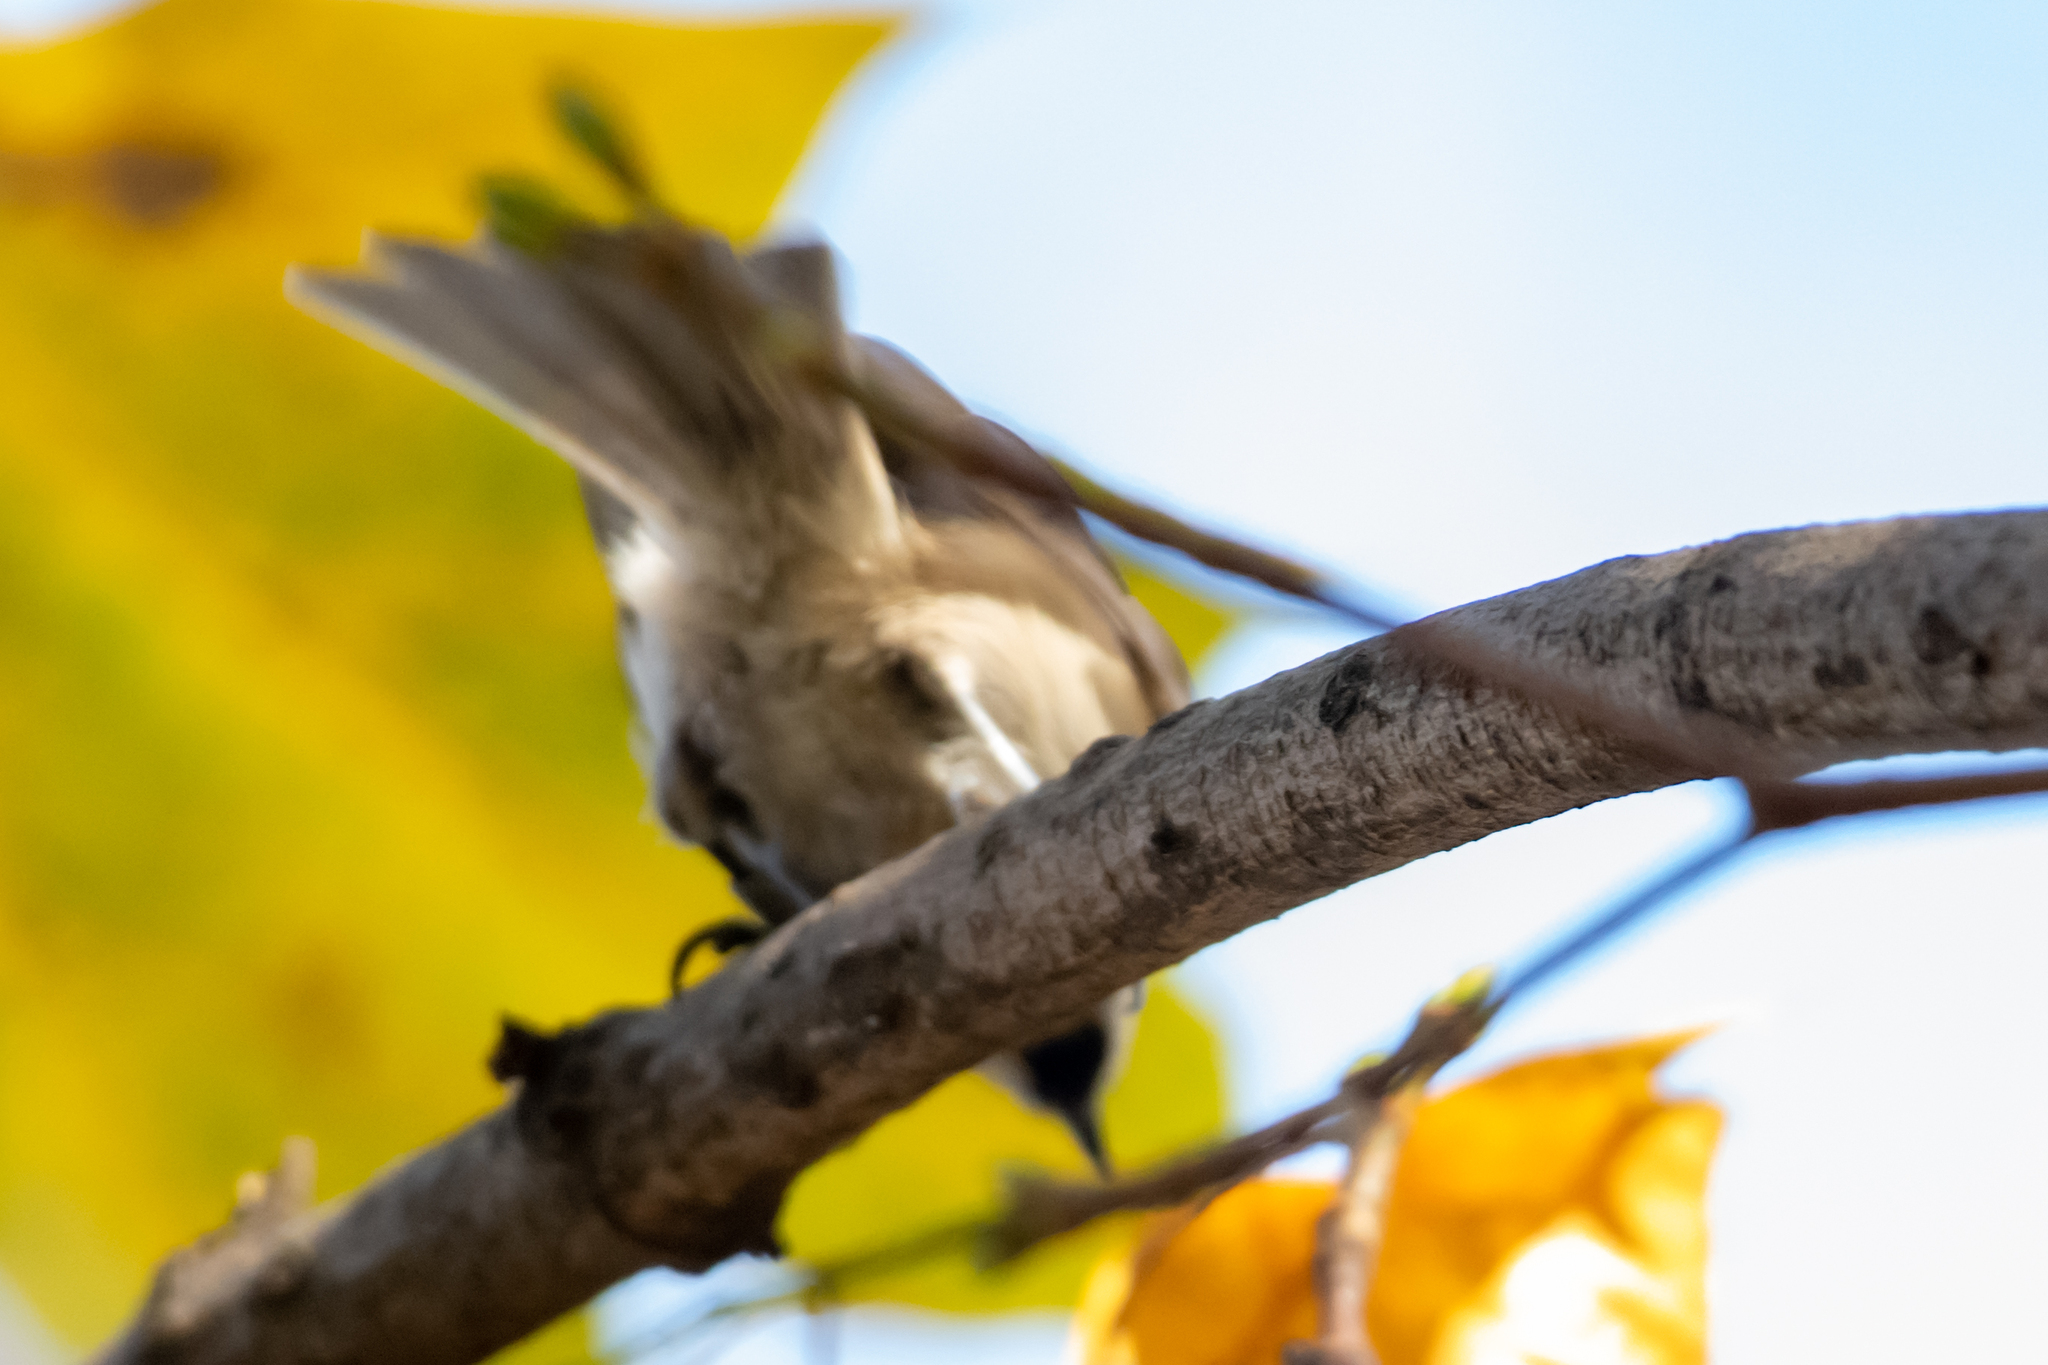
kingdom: Animalia
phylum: Chordata
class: Aves
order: Passeriformes
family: Paridae
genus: Poecile
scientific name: Poecile palustris
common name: Marsh tit
